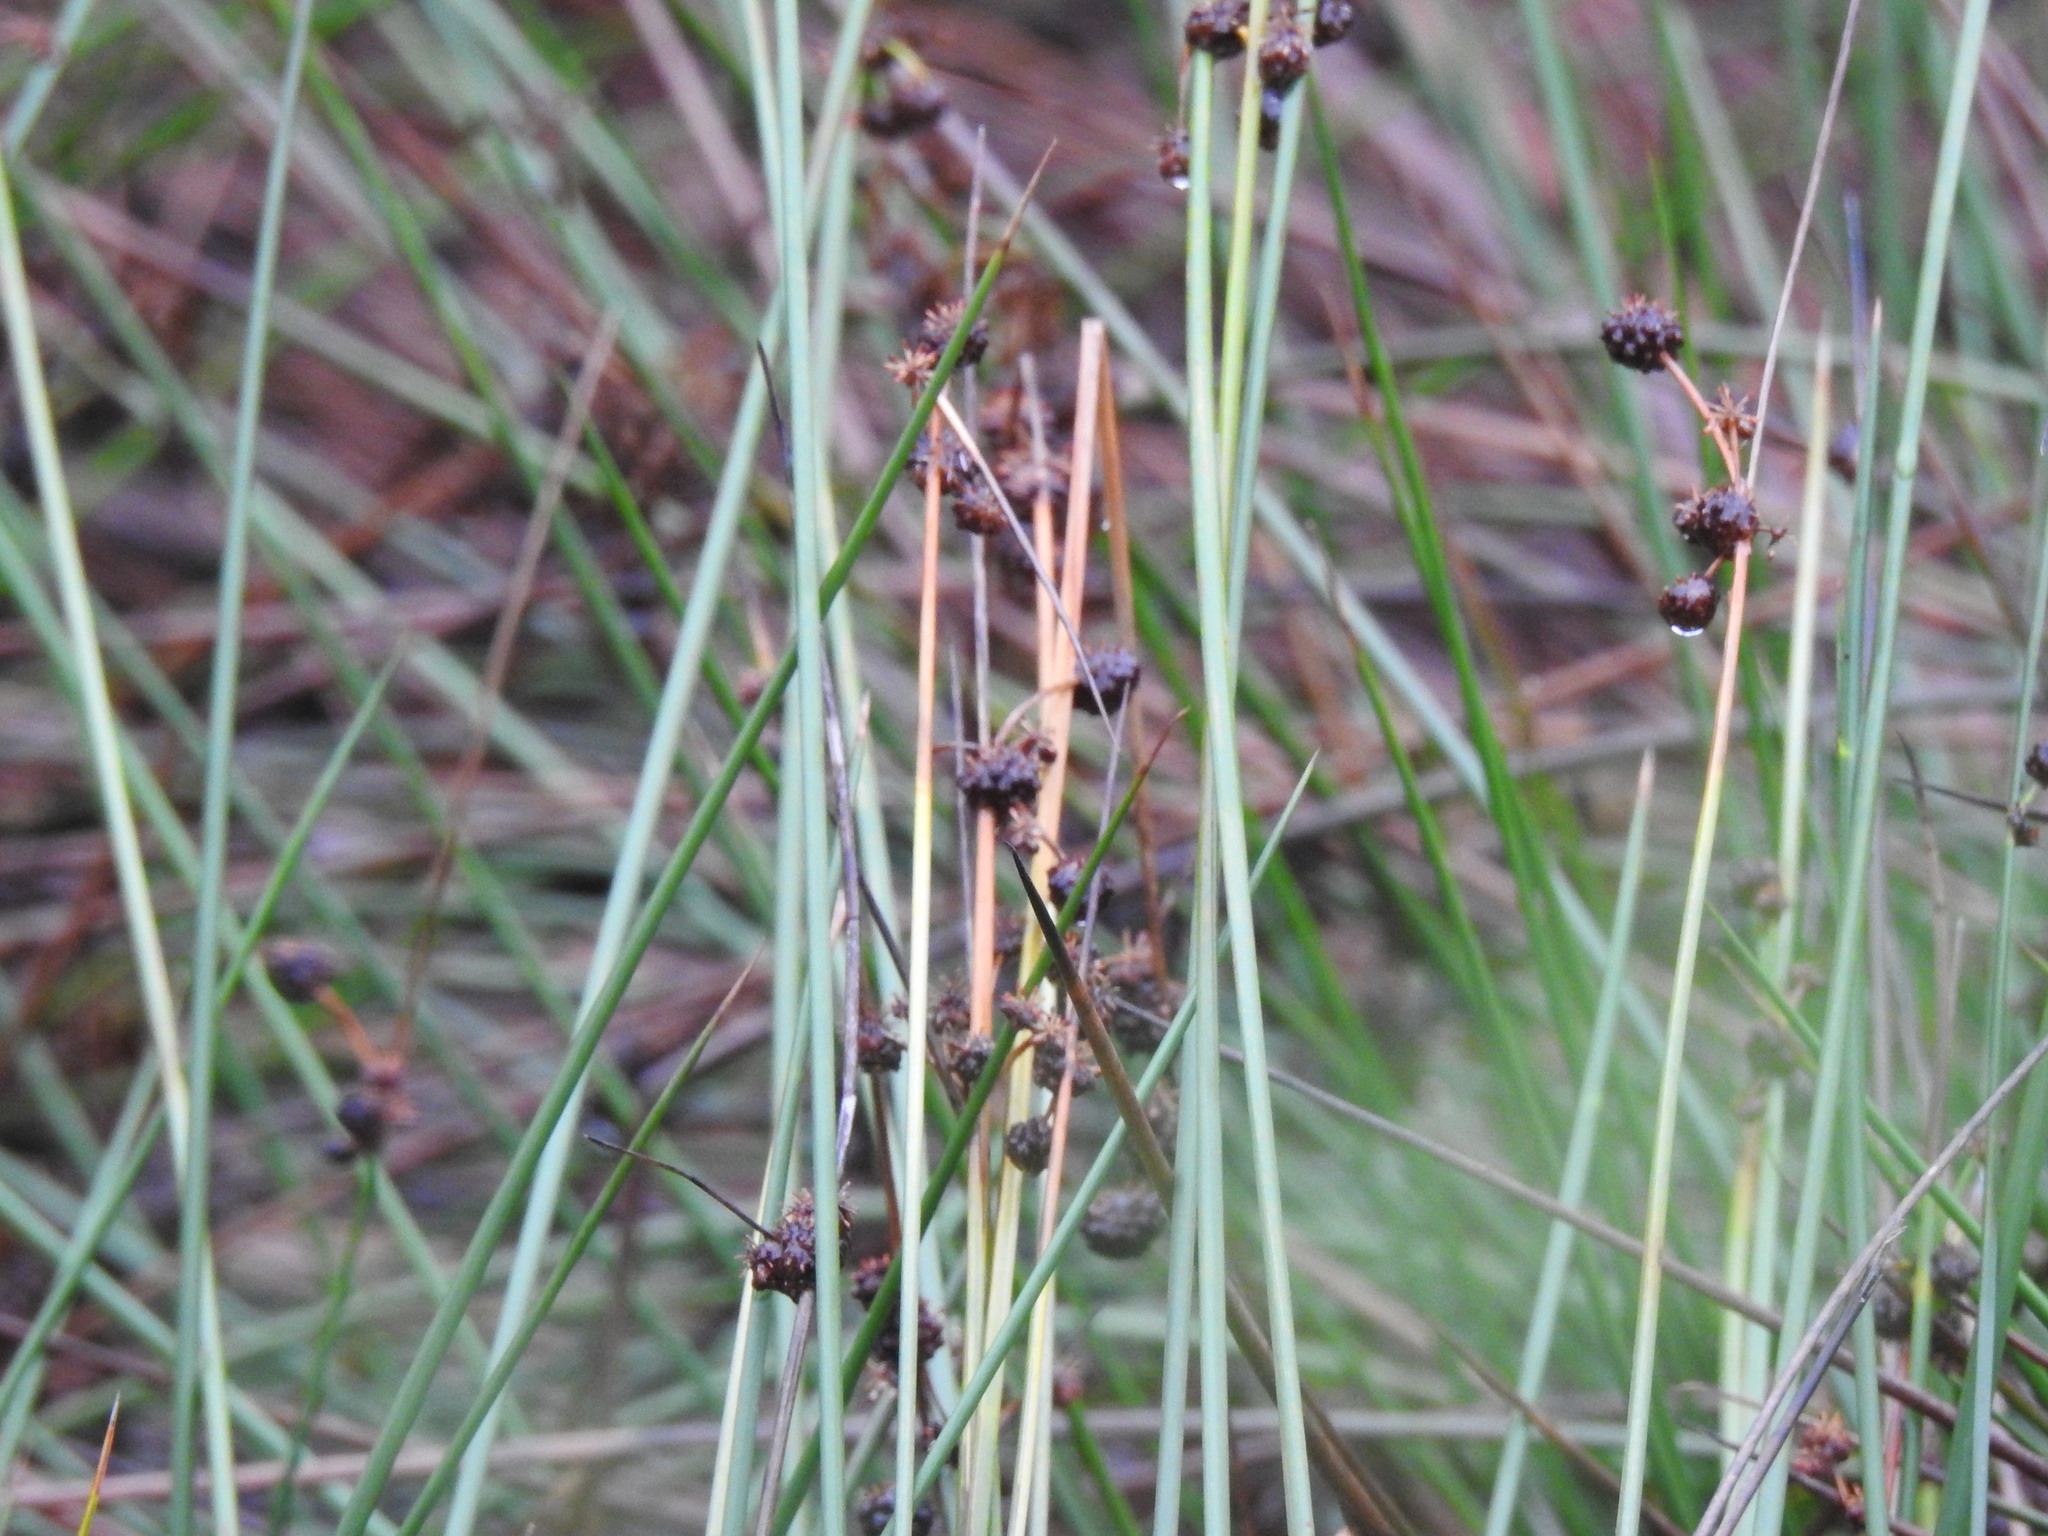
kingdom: Plantae
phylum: Tracheophyta
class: Liliopsida
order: Poales
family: Cyperaceae
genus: Scirpoides
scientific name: Scirpoides holoschoenus
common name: Round-headed club-rush
